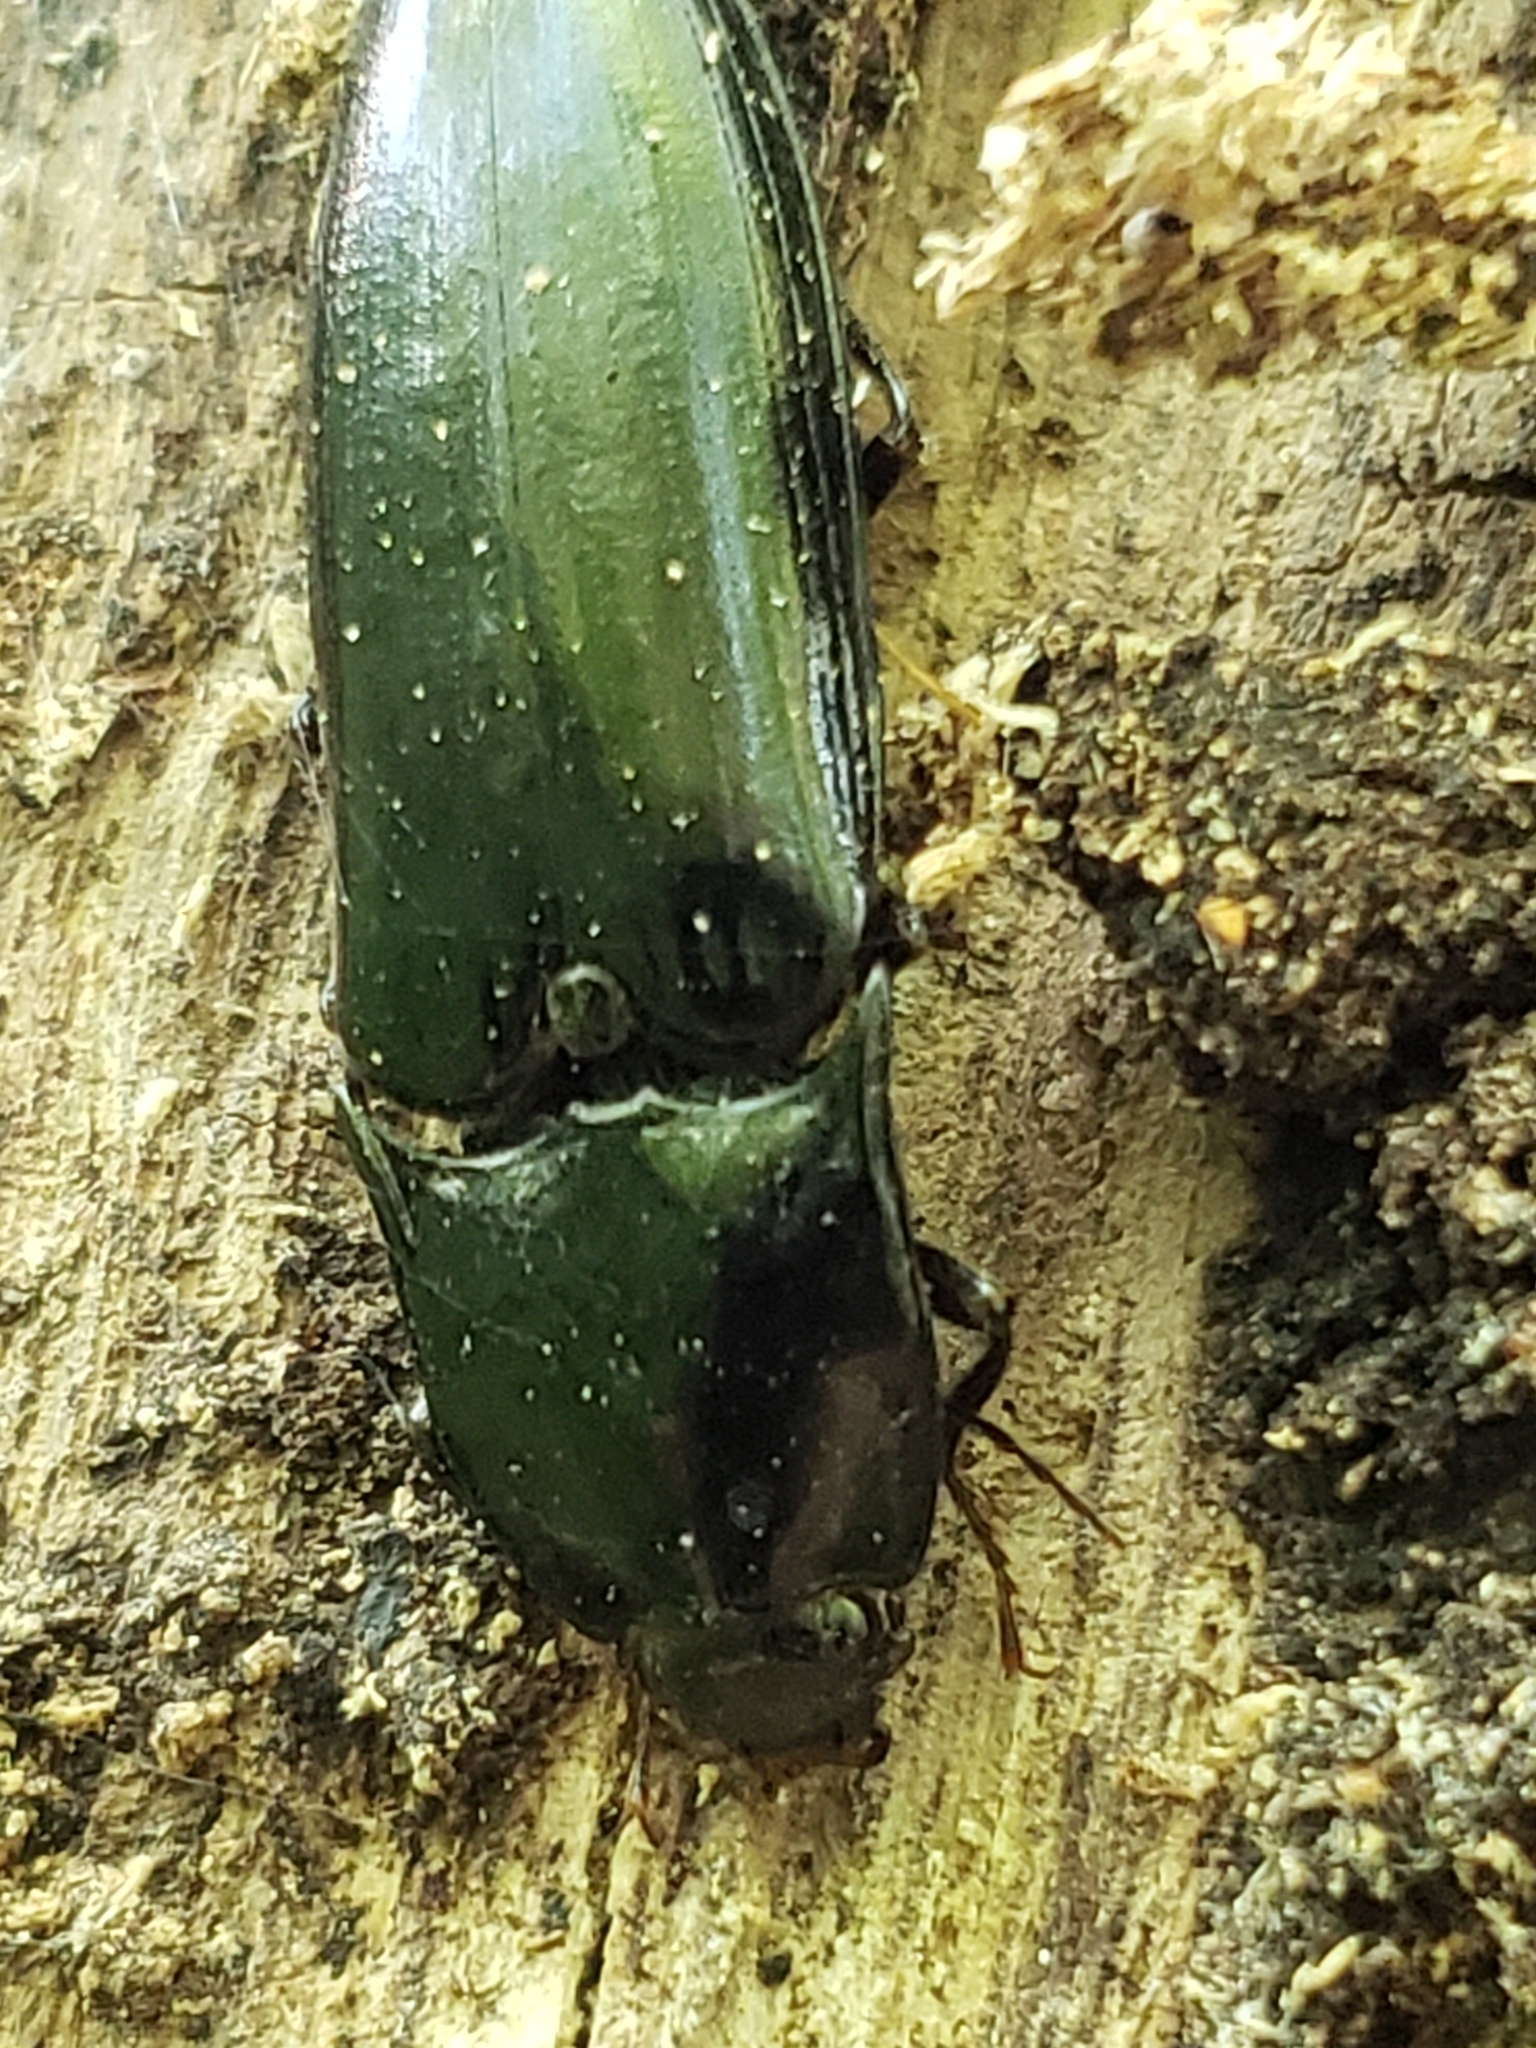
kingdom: Animalia
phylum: Arthropoda
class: Insecta
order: Coleoptera
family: Elateridae
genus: Melanactes
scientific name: Melanactes piceus
